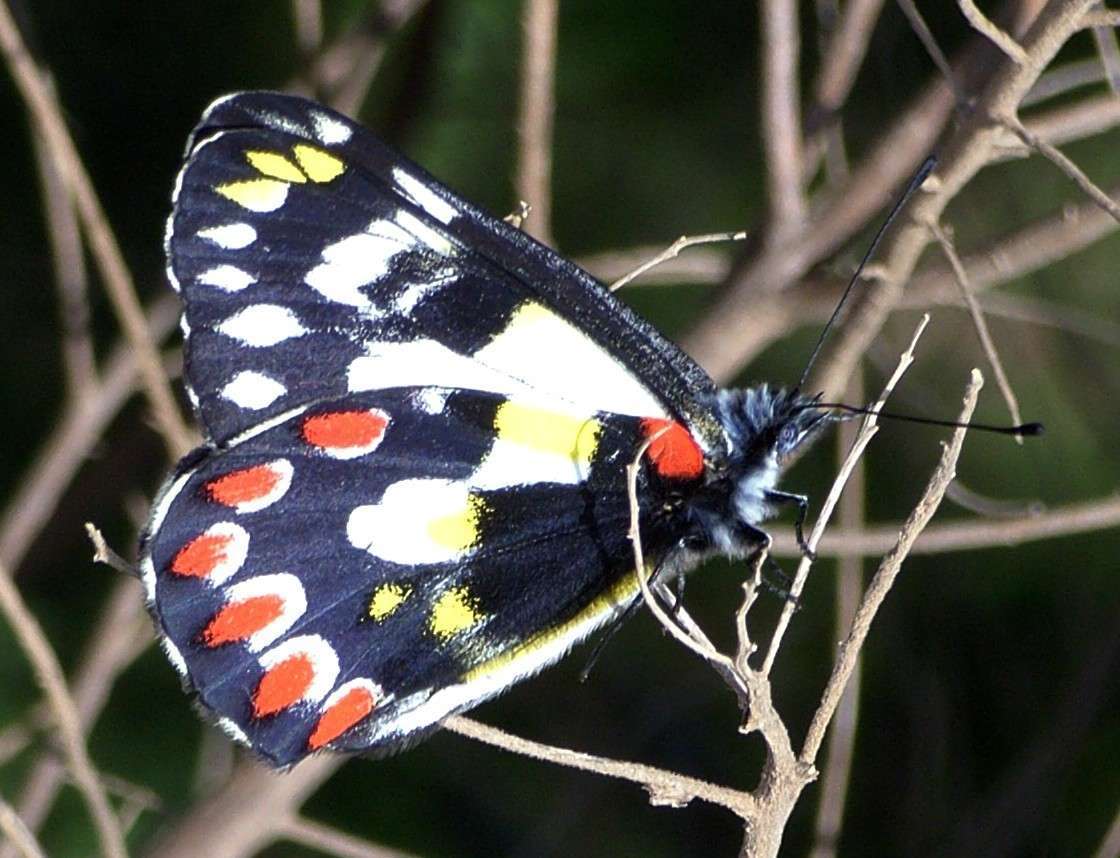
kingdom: Animalia
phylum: Arthropoda
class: Insecta
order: Lepidoptera
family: Pieridae
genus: Delias
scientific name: Delias aganippe
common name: Red-spotted jezebel
